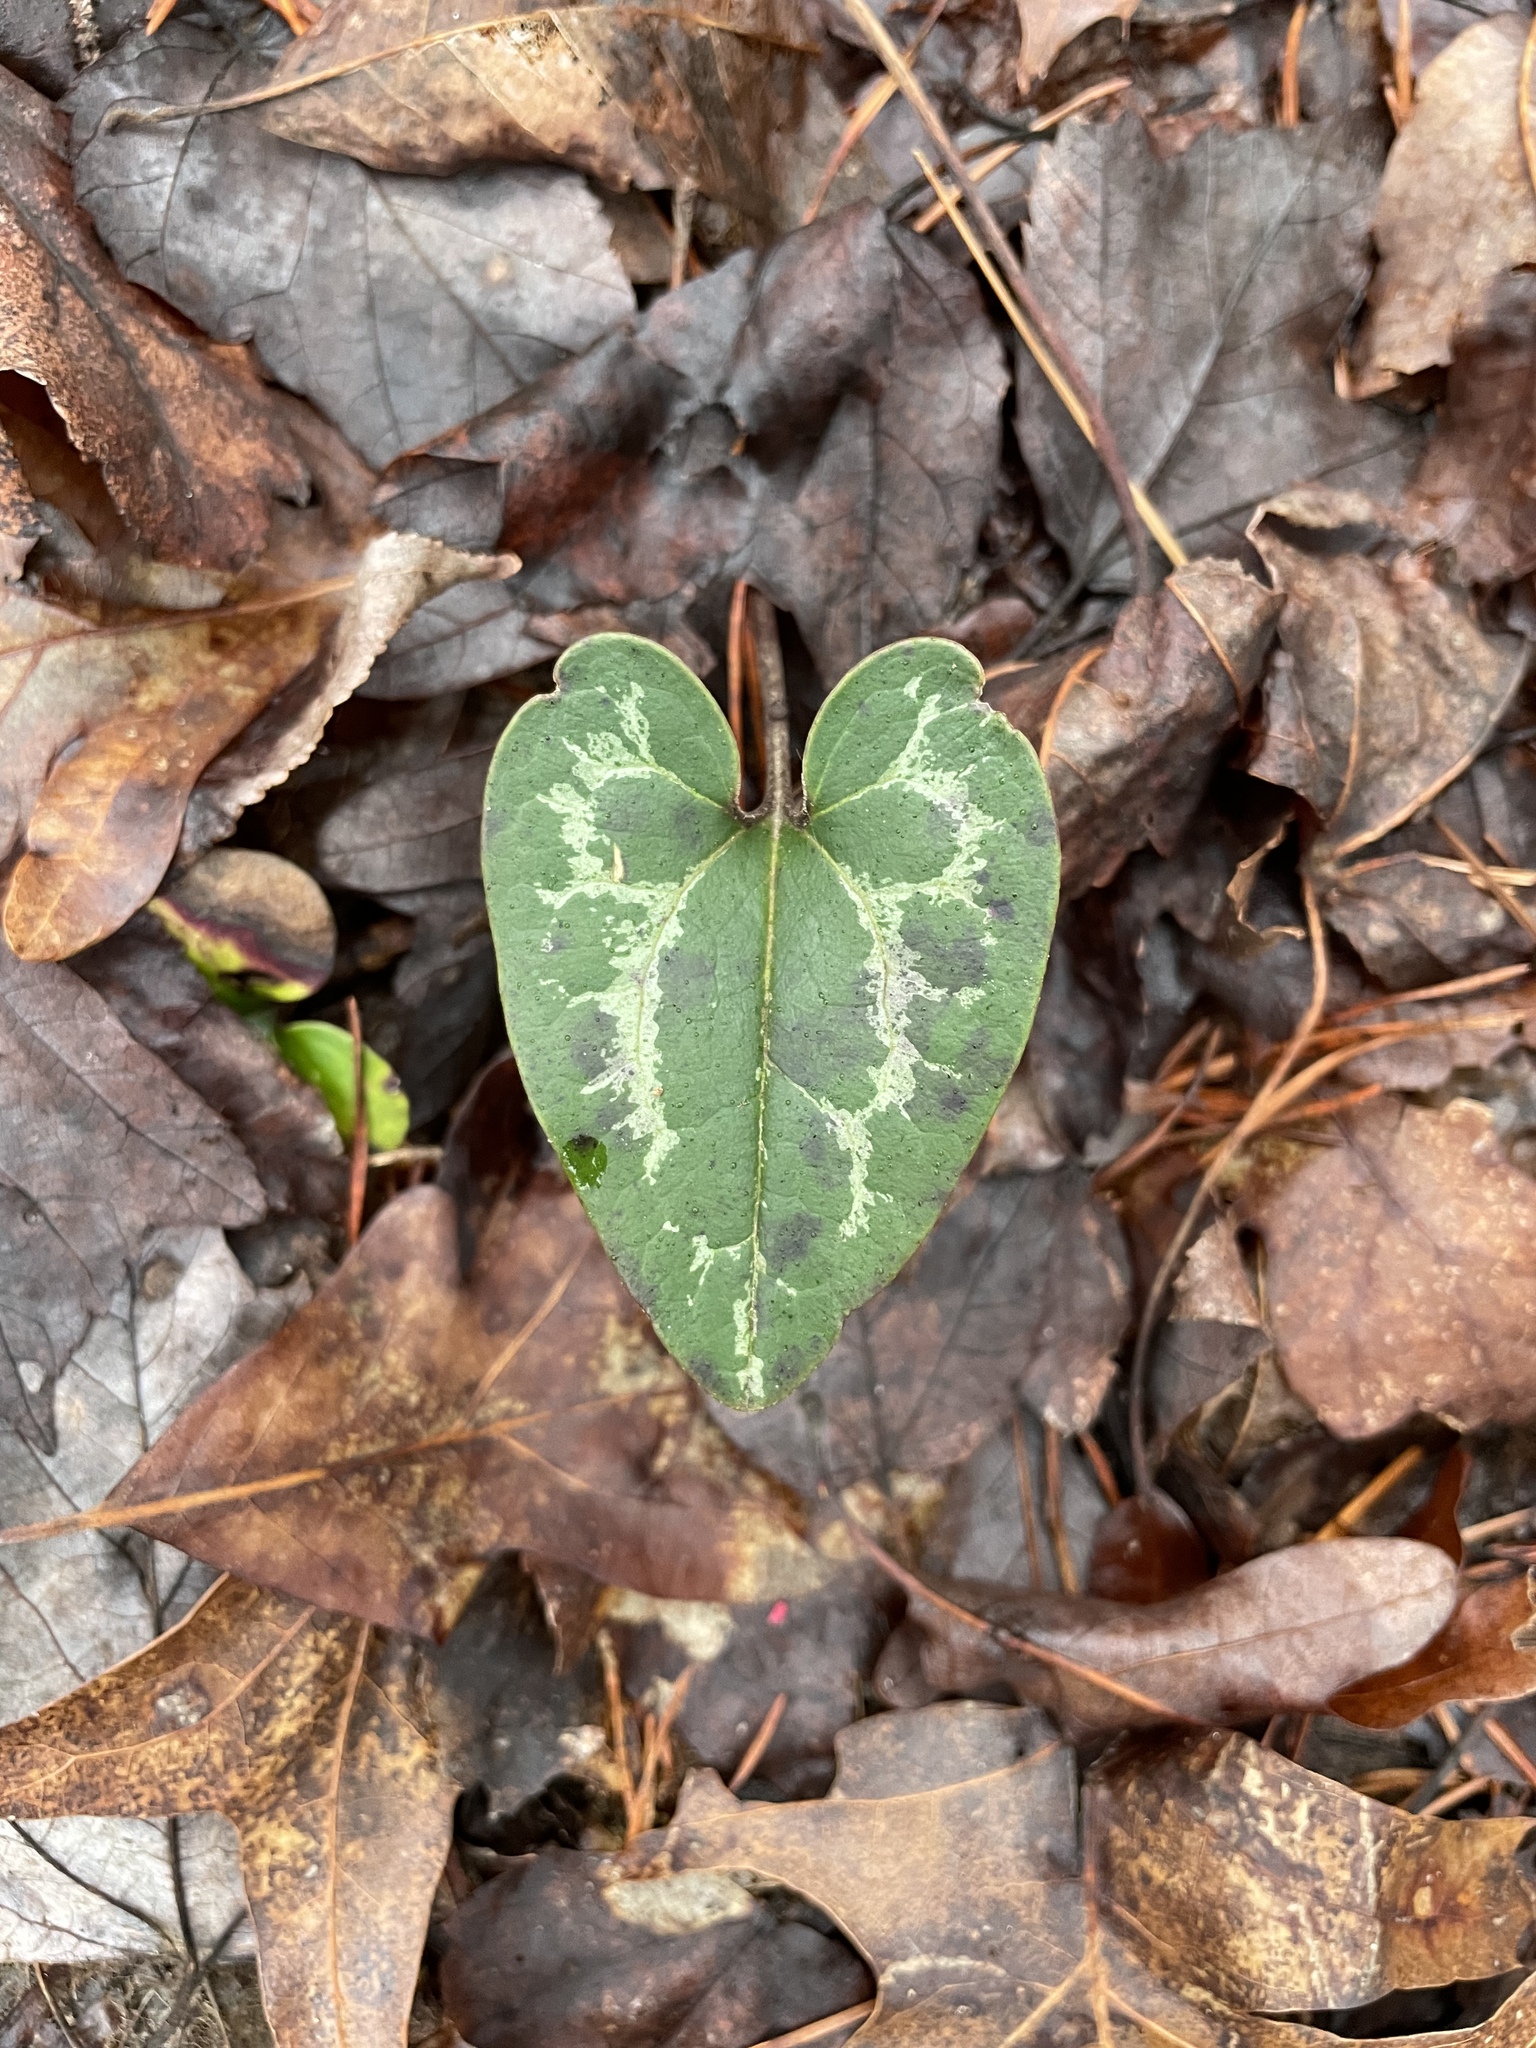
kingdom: Plantae
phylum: Tracheophyta
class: Magnoliopsida
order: Piperales
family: Aristolochiaceae
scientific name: Aristolochiaceae
